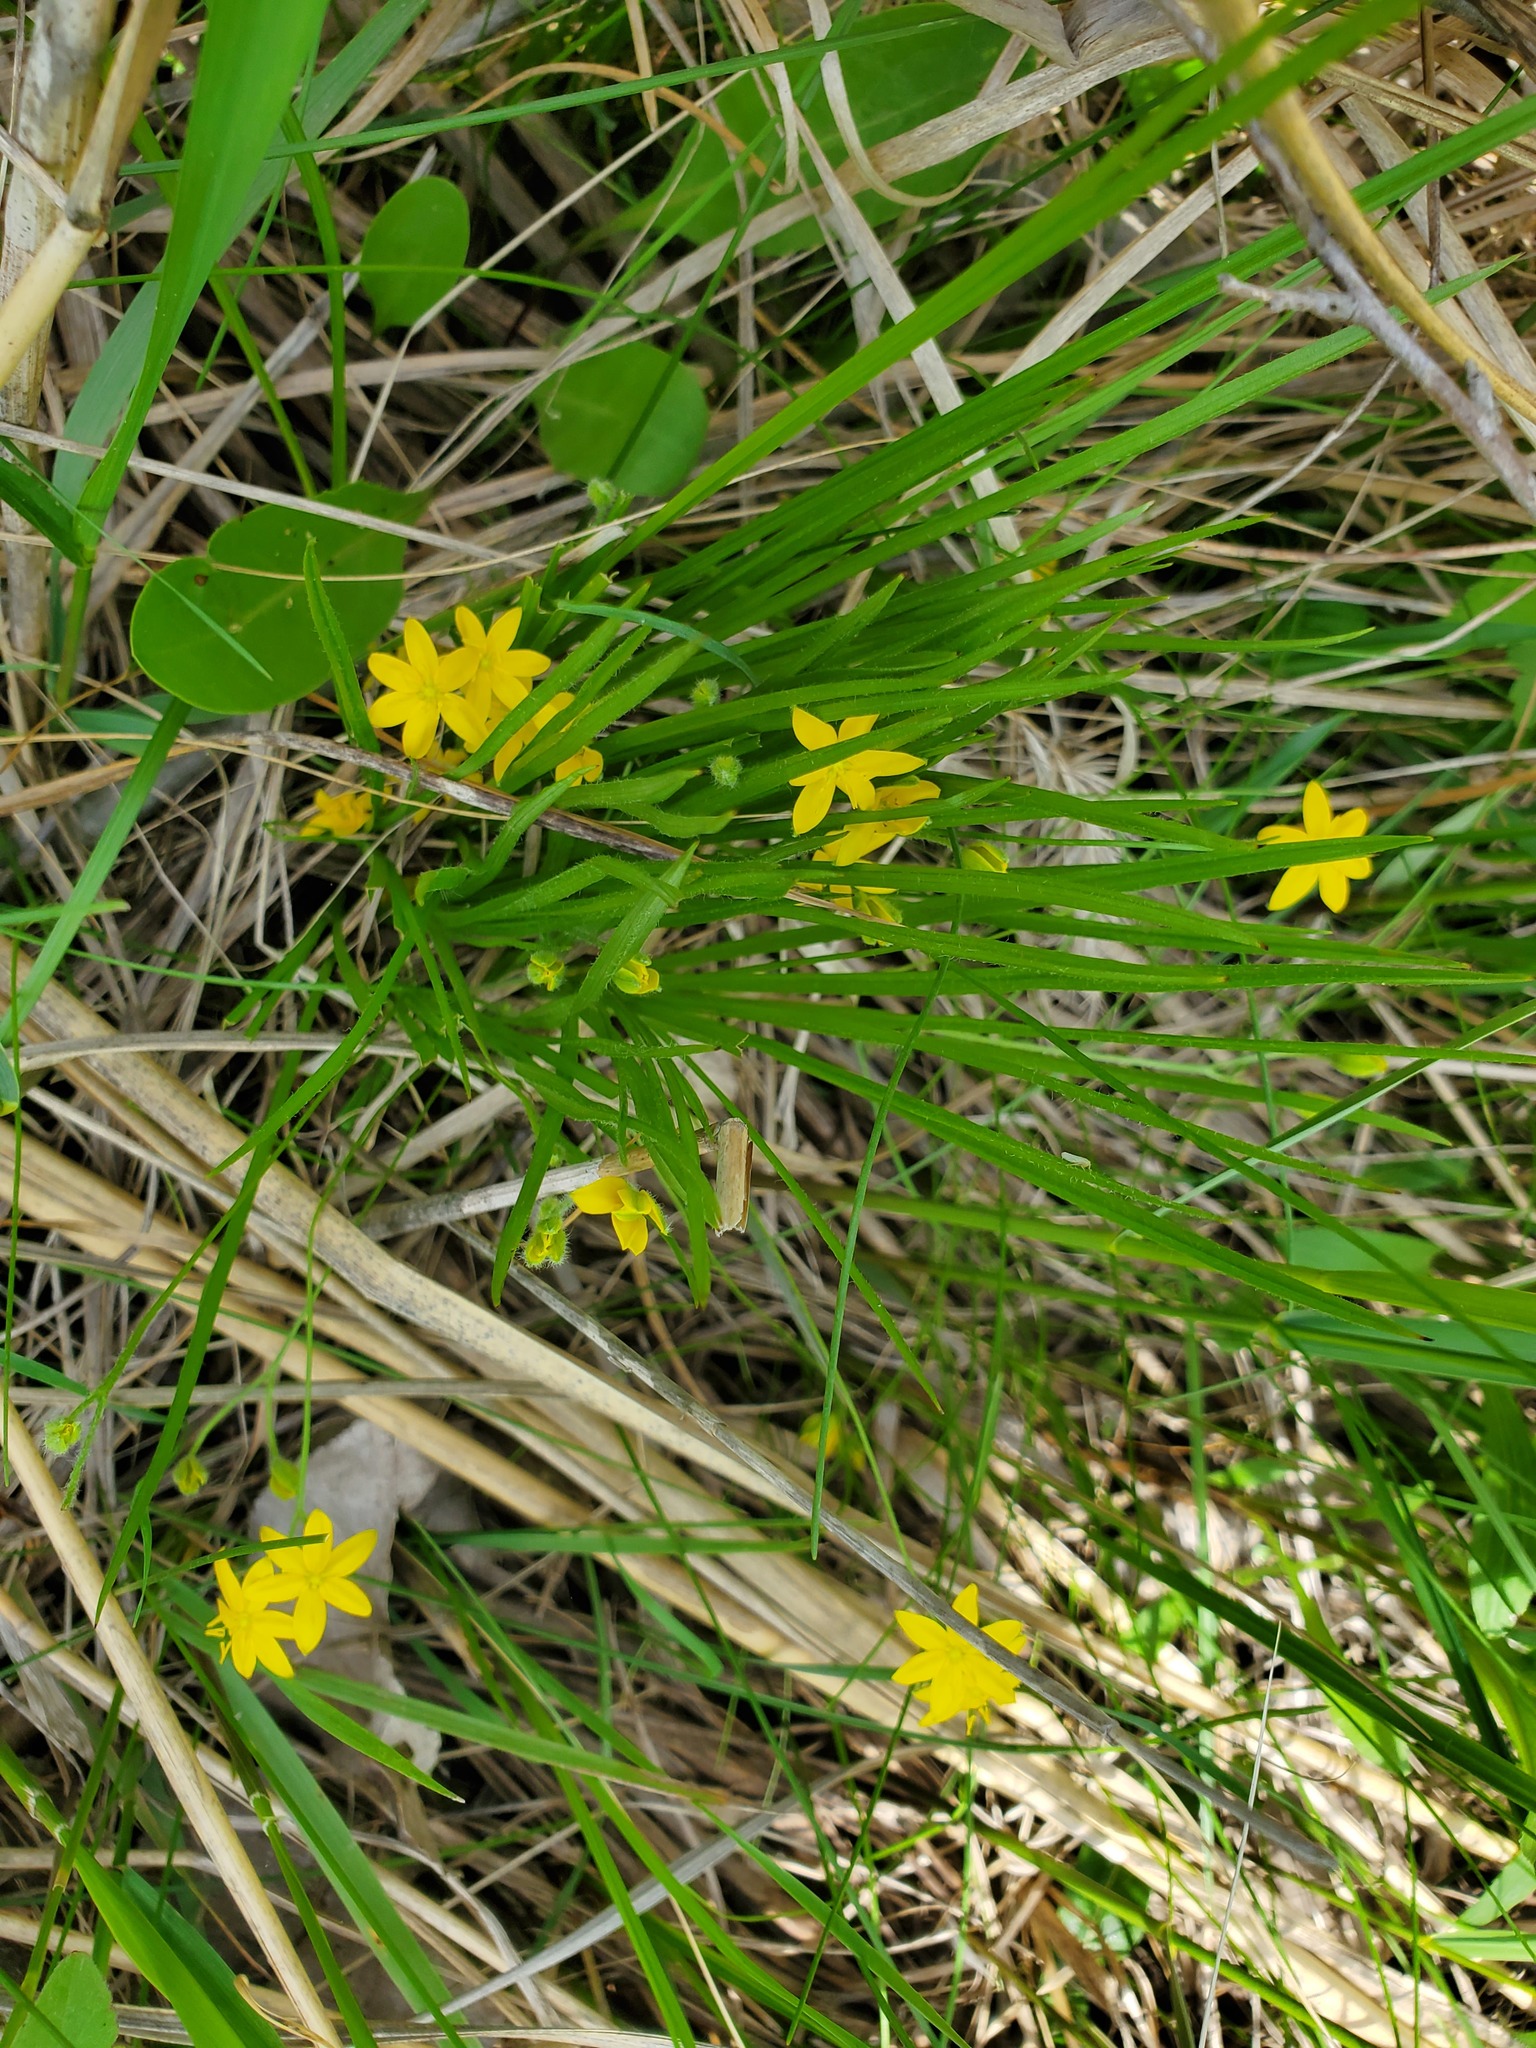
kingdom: Plantae
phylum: Tracheophyta
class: Liliopsida
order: Asparagales
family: Hypoxidaceae
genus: Hypoxis
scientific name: Hypoxis hirsuta
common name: Common goldstar
